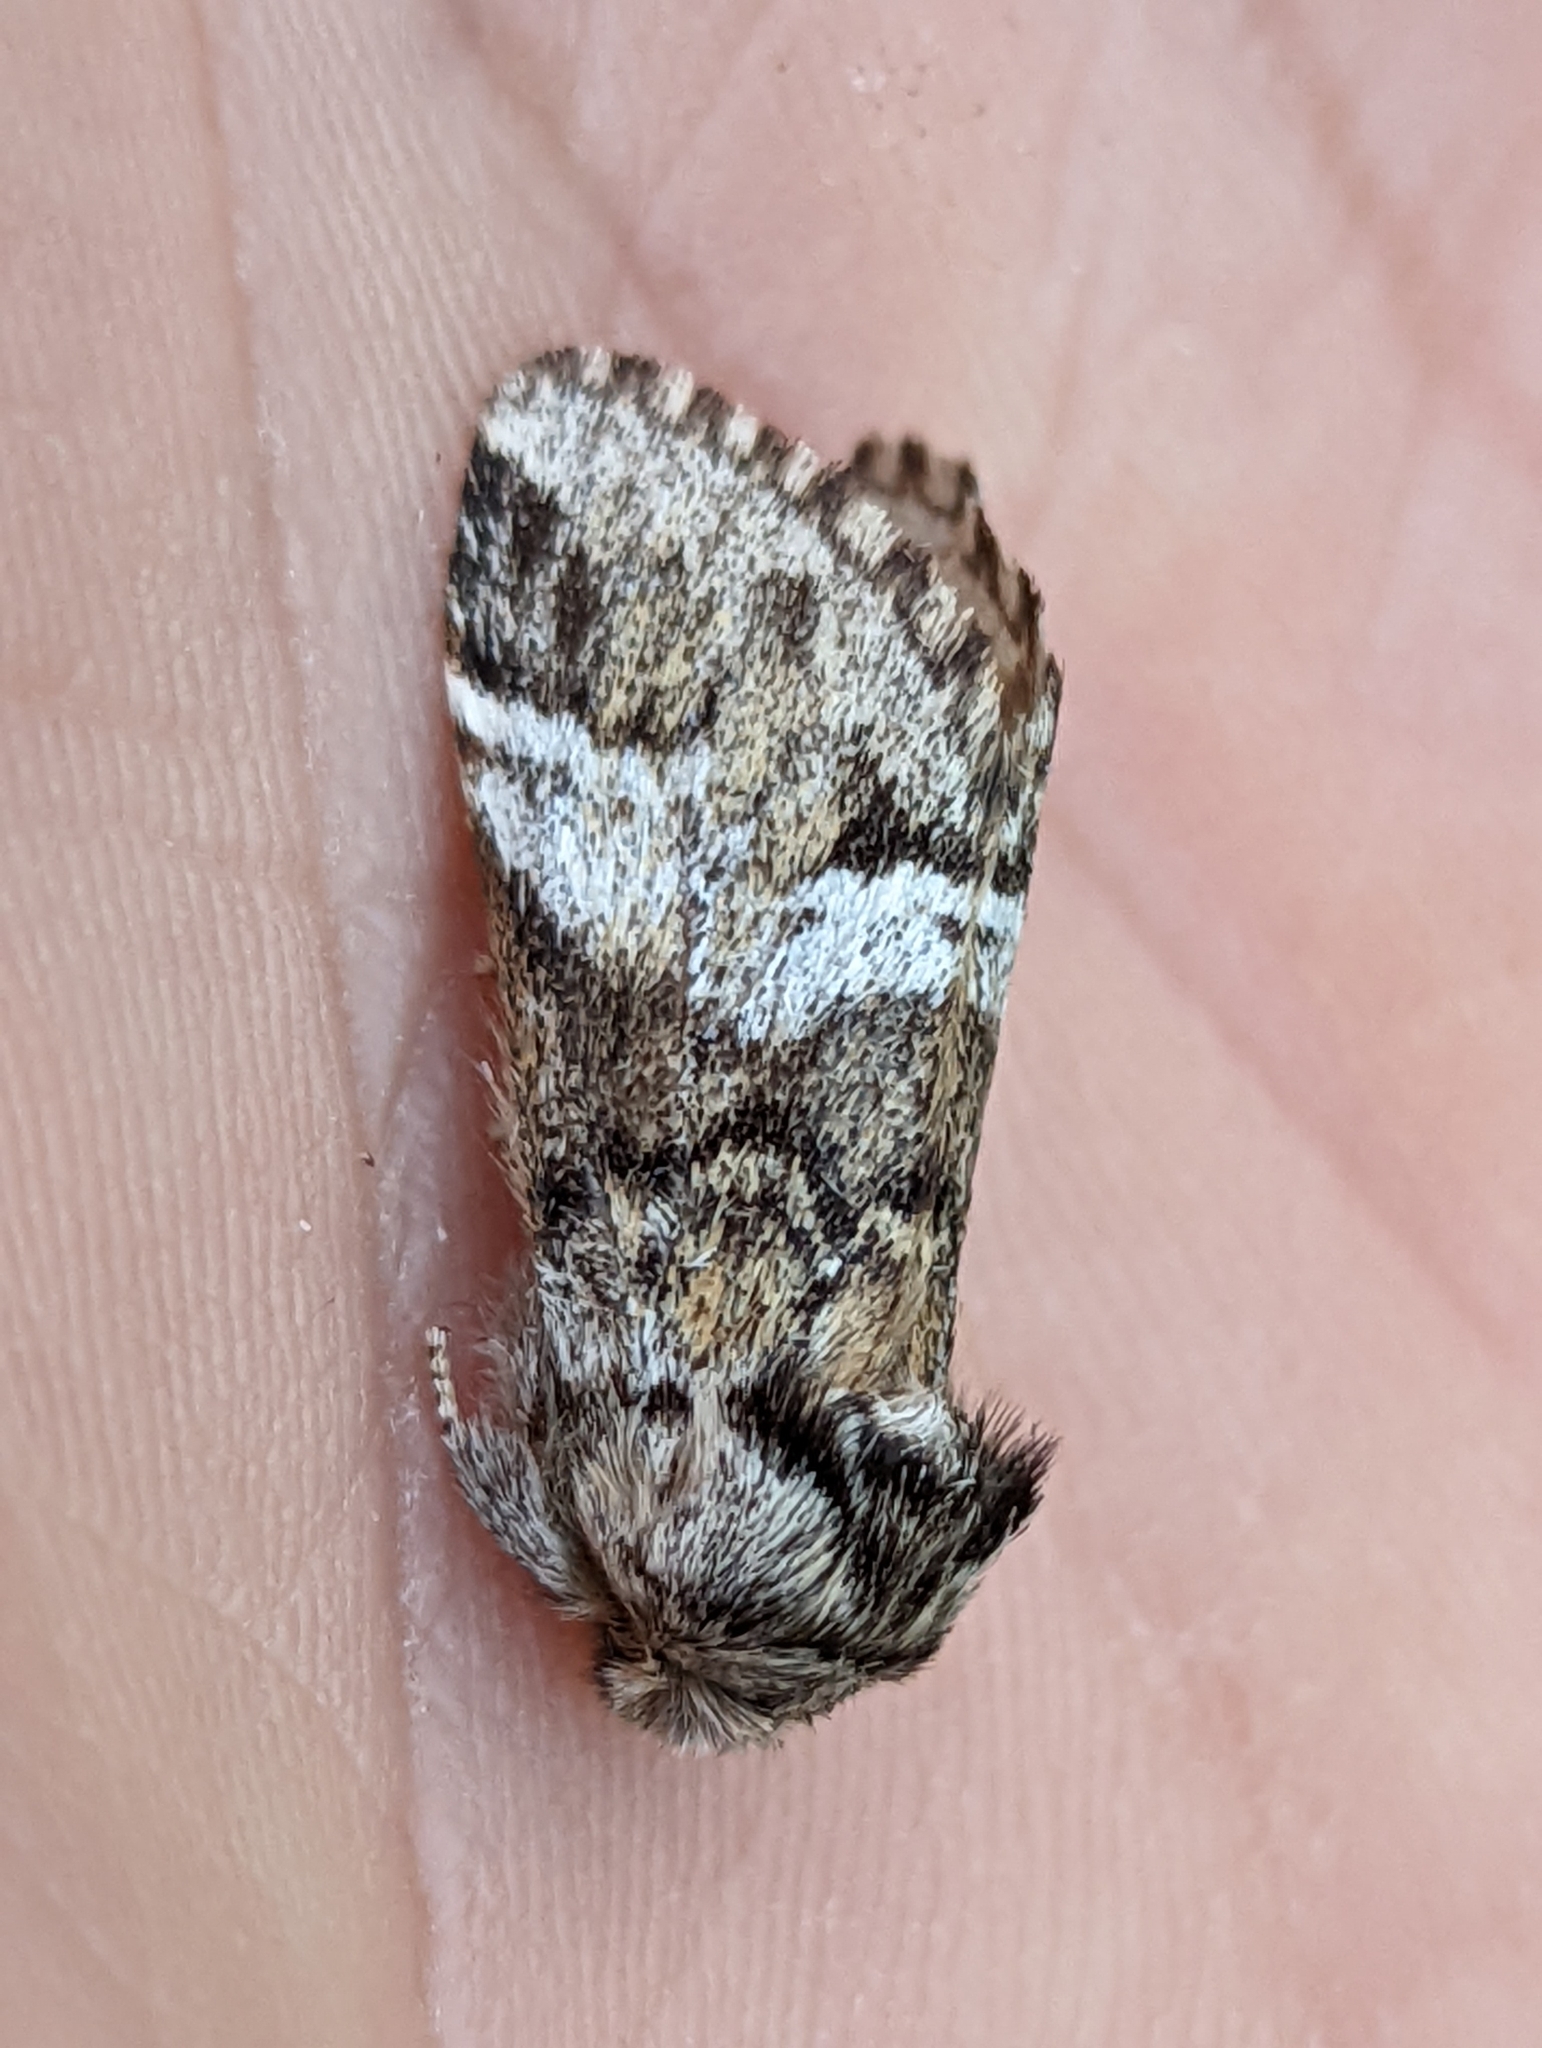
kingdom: Animalia
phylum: Arthropoda
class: Insecta
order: Lepidoptera
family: Notodontidae
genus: Drymonia
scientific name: Drymonia dodonaea
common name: Marbled brown
